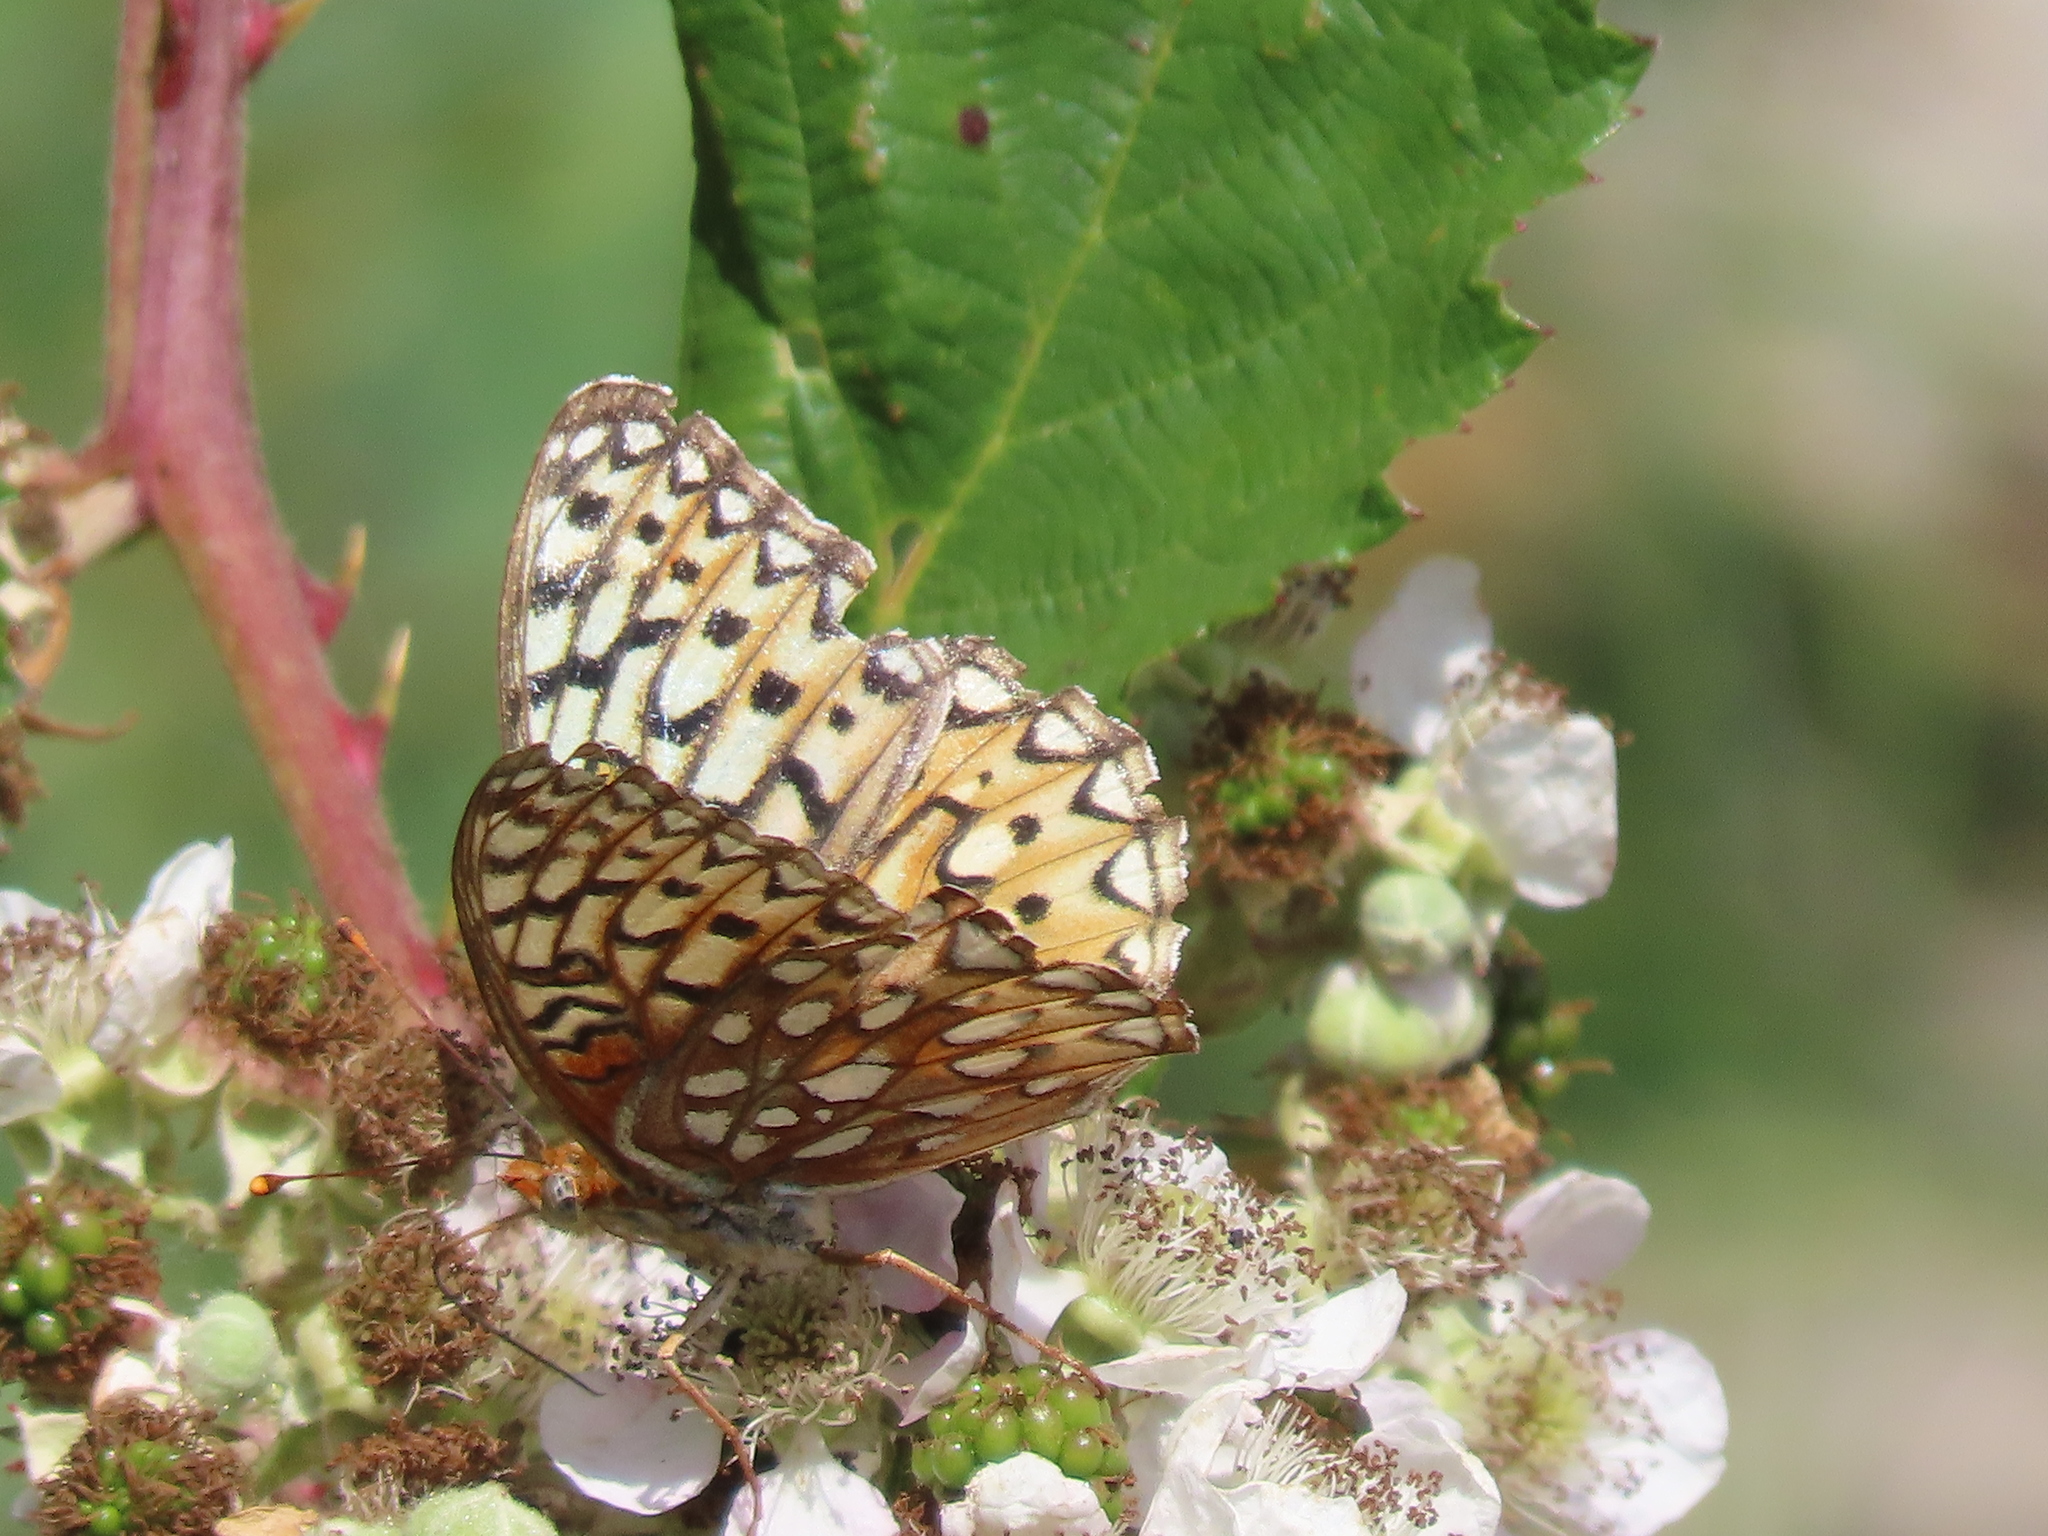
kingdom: Animalia
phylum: Arthropoda
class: Insecta
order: Lepidoptera
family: Nymphalidae
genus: Speyeria
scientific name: Speyeria callippe
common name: Callippe fritillary
